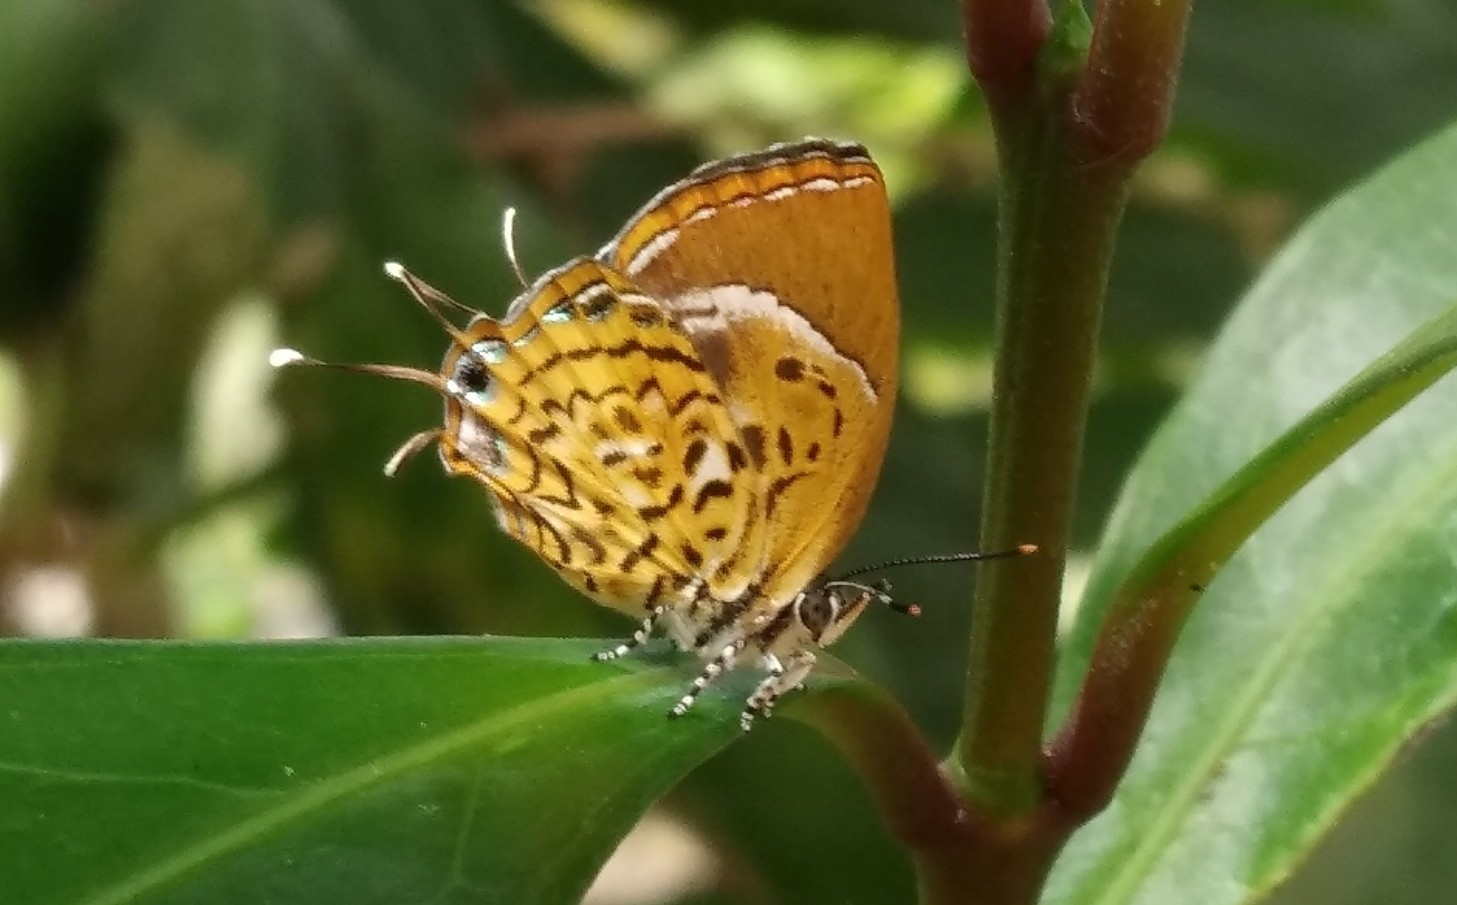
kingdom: Animalia
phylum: Arthropoda
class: Insecta
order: Lepidoptera
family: Lycaenidae
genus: Rathinda
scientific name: Rathinda amor
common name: Monkey puzzle
